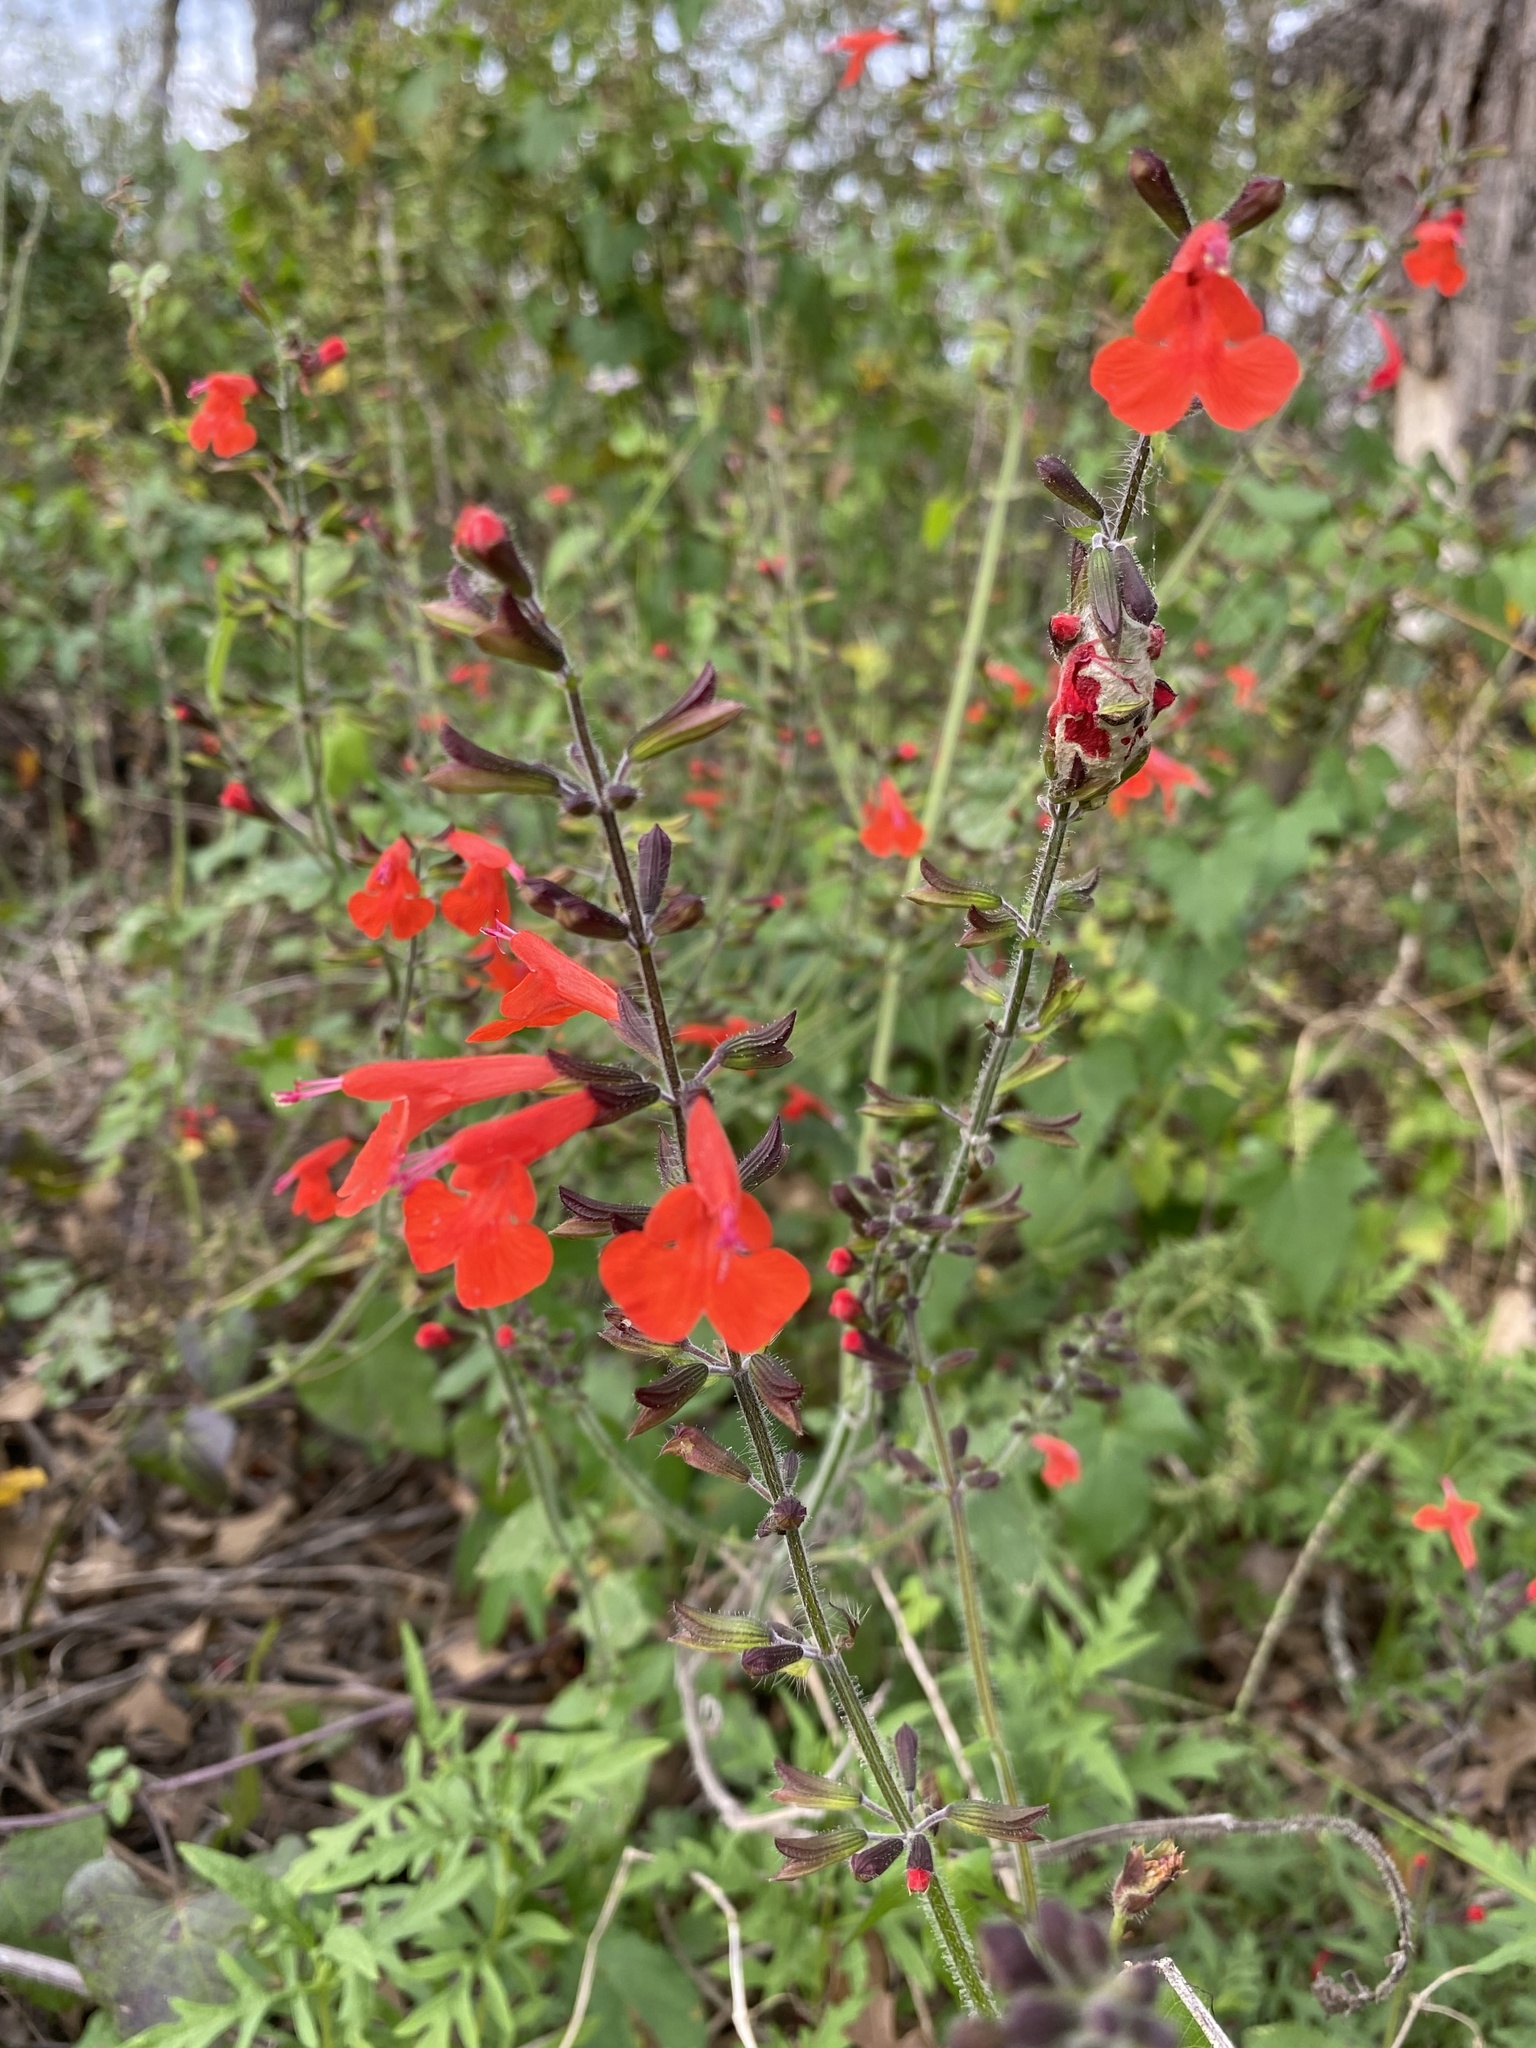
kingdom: Plantae
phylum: Tracheophyta
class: Magnoliopsida
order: Lamiales
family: Lamiaceae
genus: Salvia
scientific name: Salvia coccinea
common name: Blood sage
